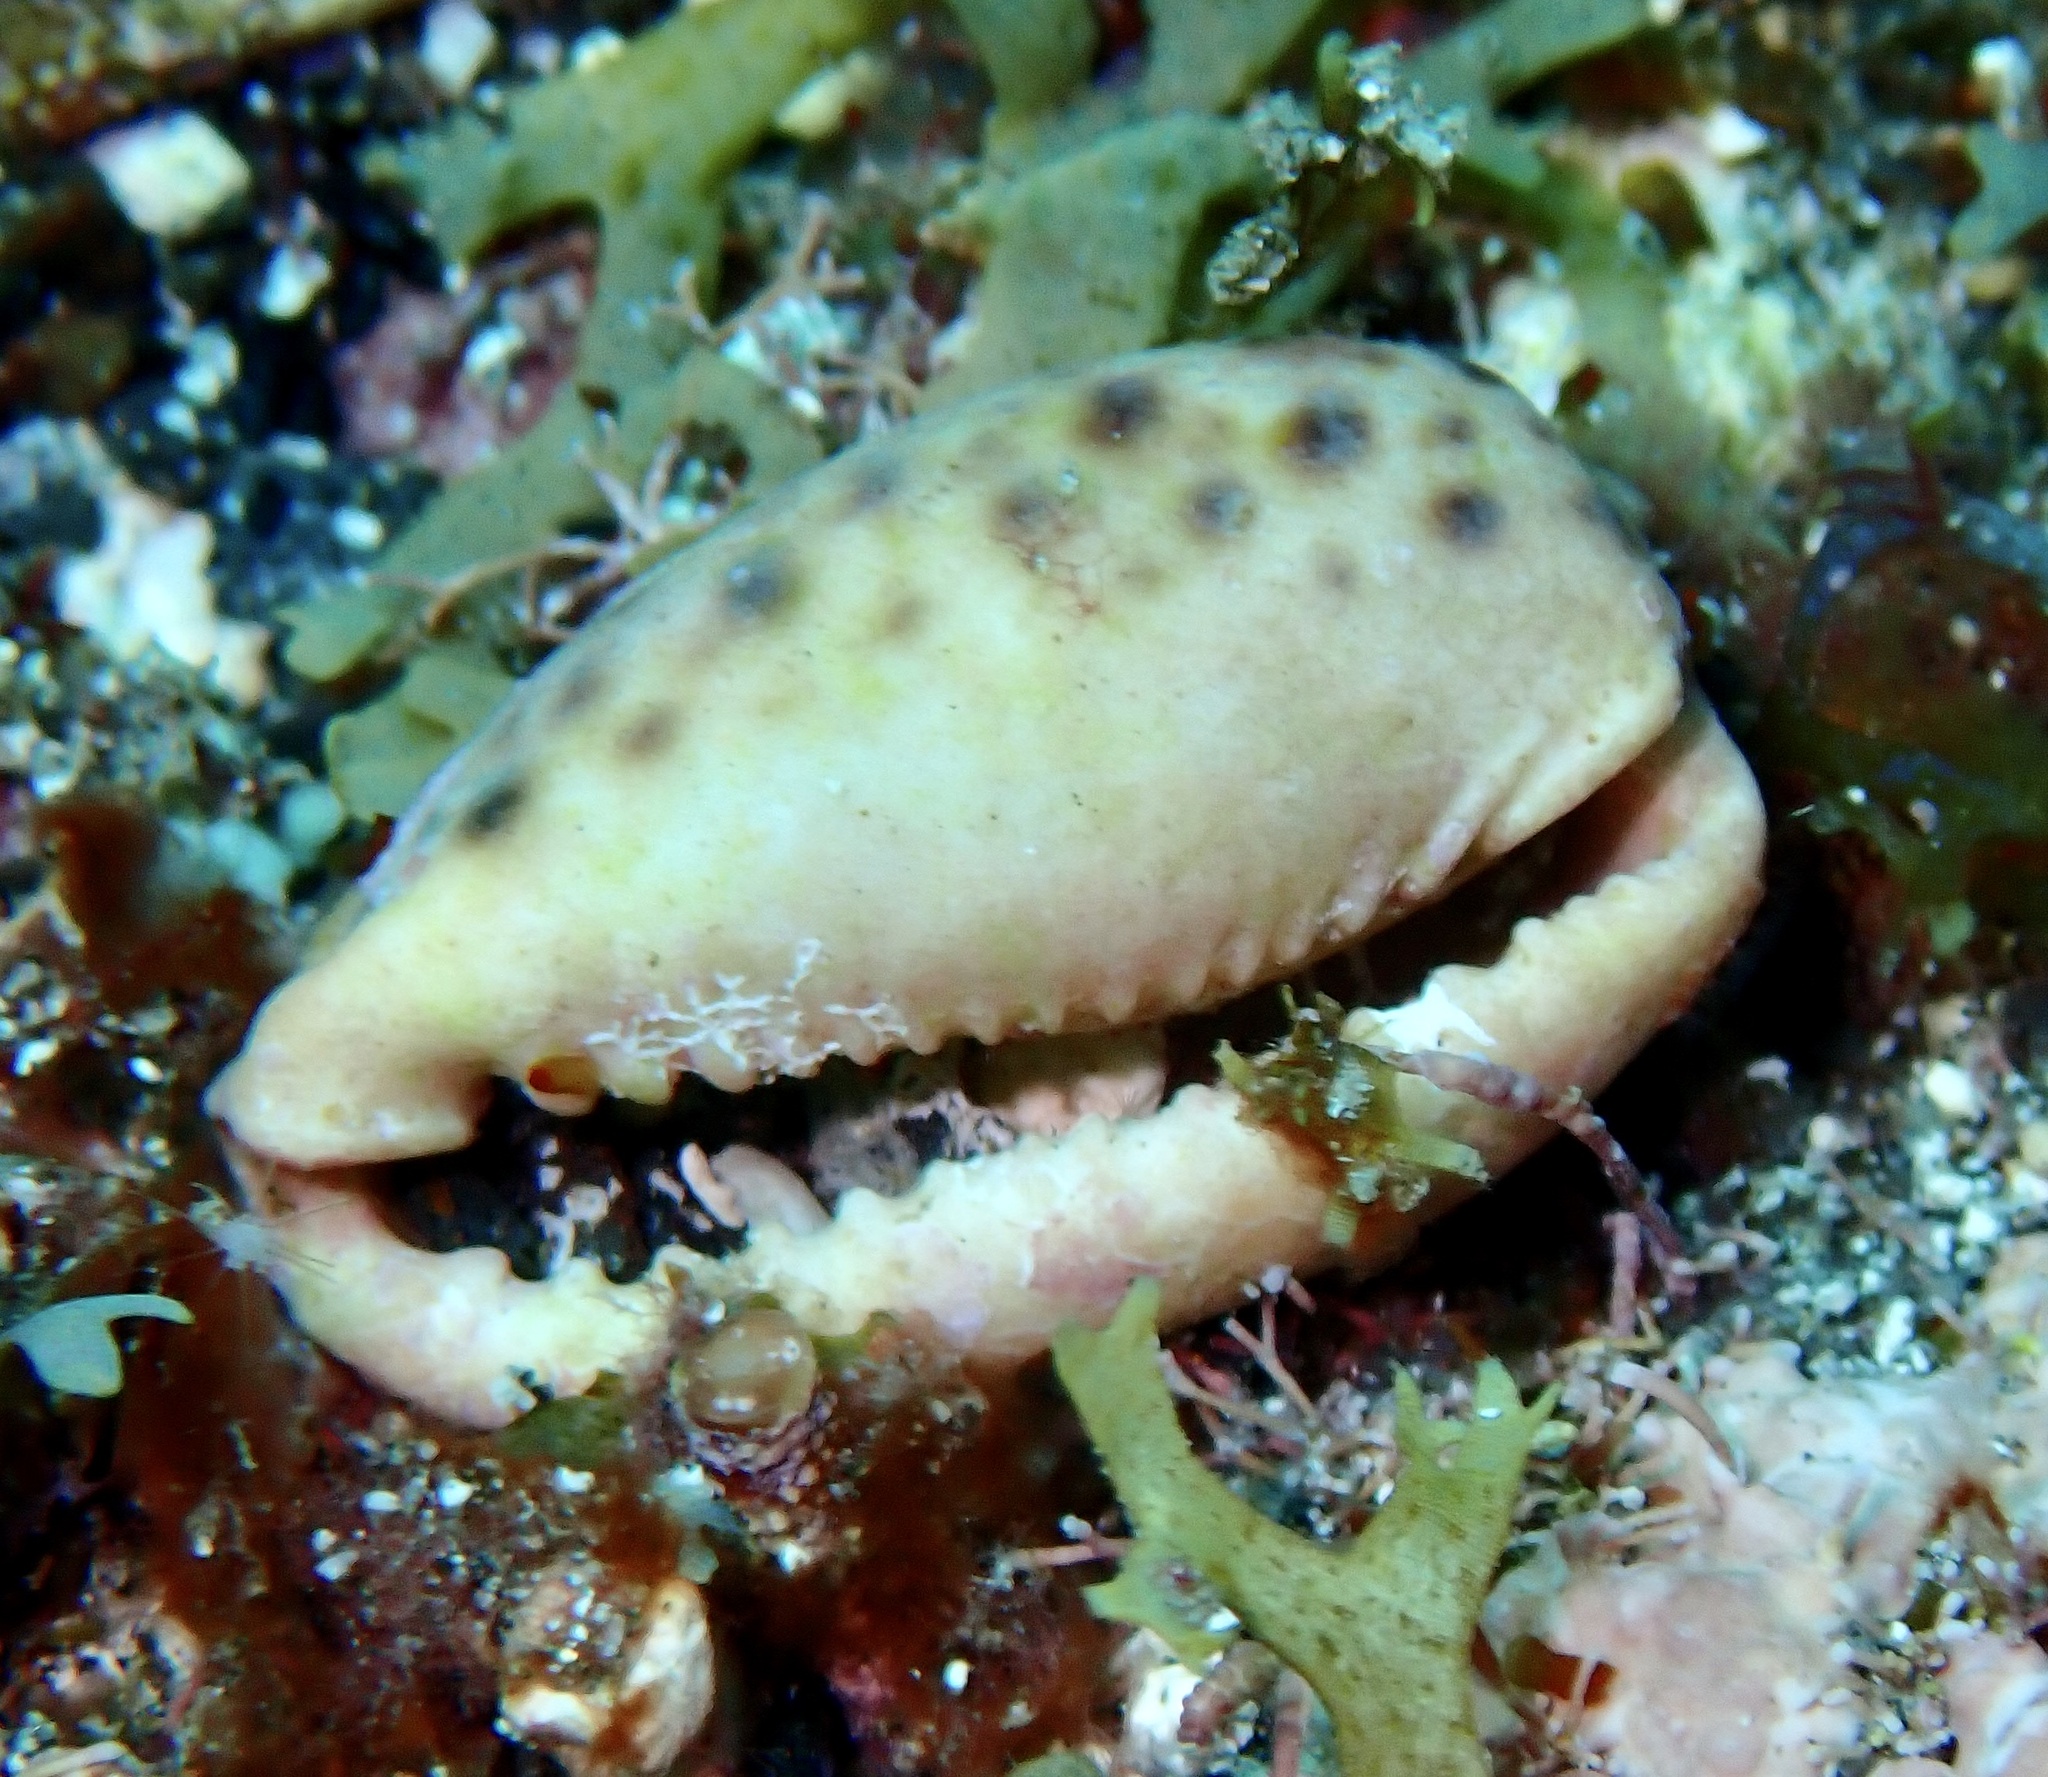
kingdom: Animalia
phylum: Mollusca
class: Gastropoda
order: Littorinimorpha
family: Cypraeidae
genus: Naria
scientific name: Naria spurca
